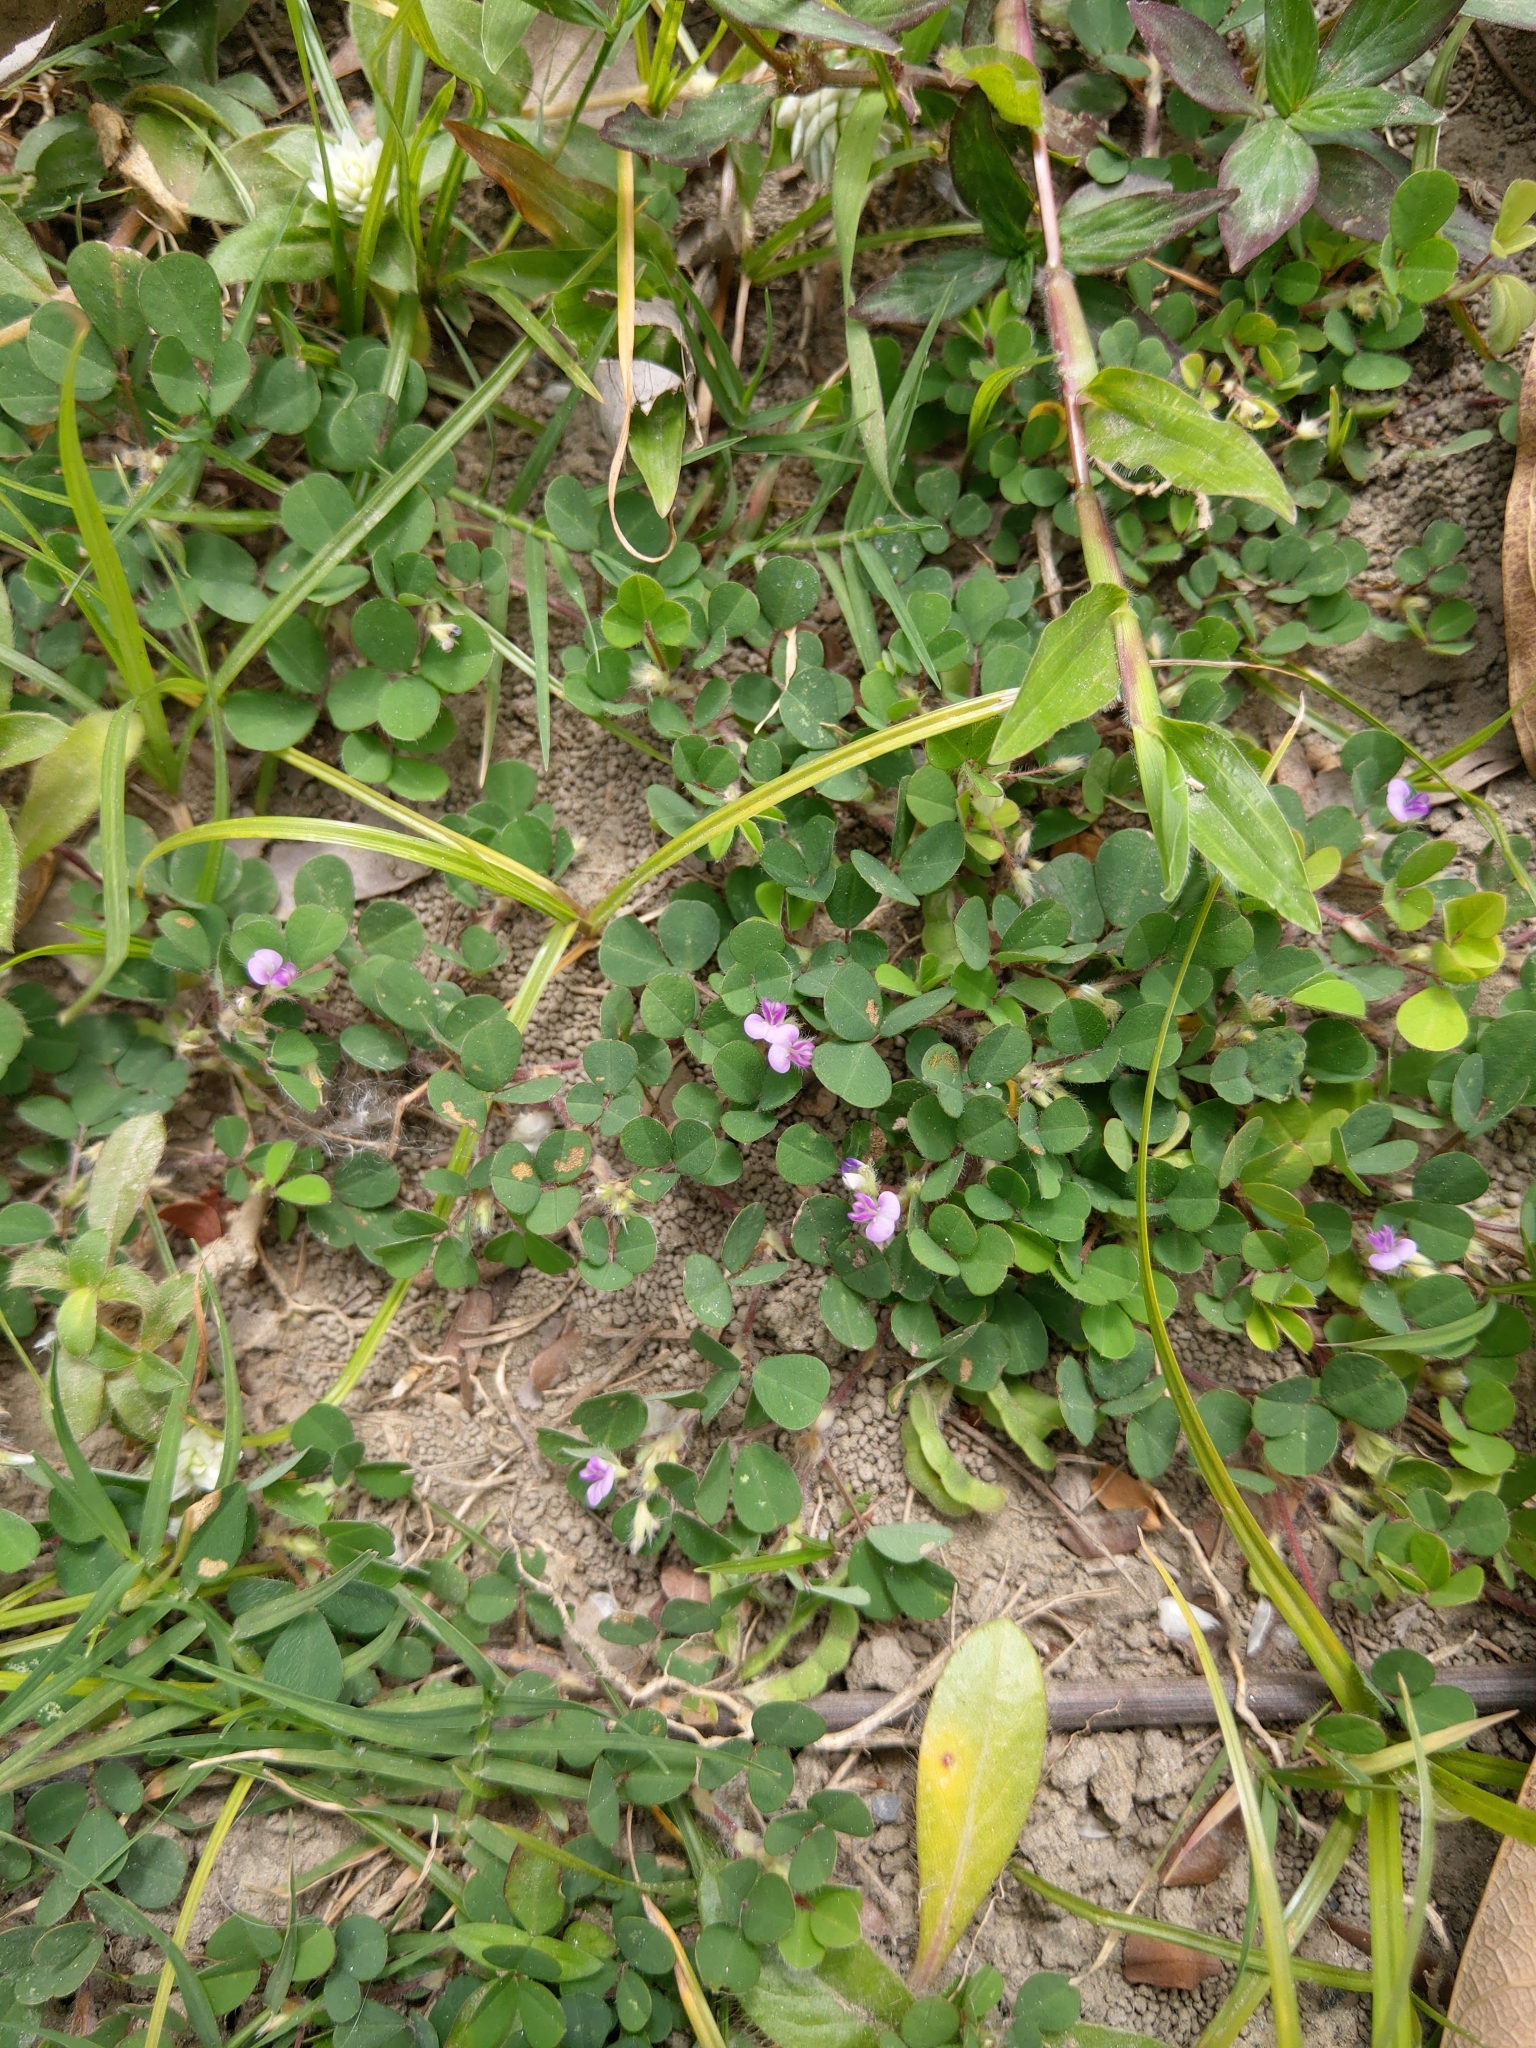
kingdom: Plantae
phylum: Tracheophyta
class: Magnoliopsida
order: Fabales
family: Fabaceae
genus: Grona
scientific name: Grona triflora
